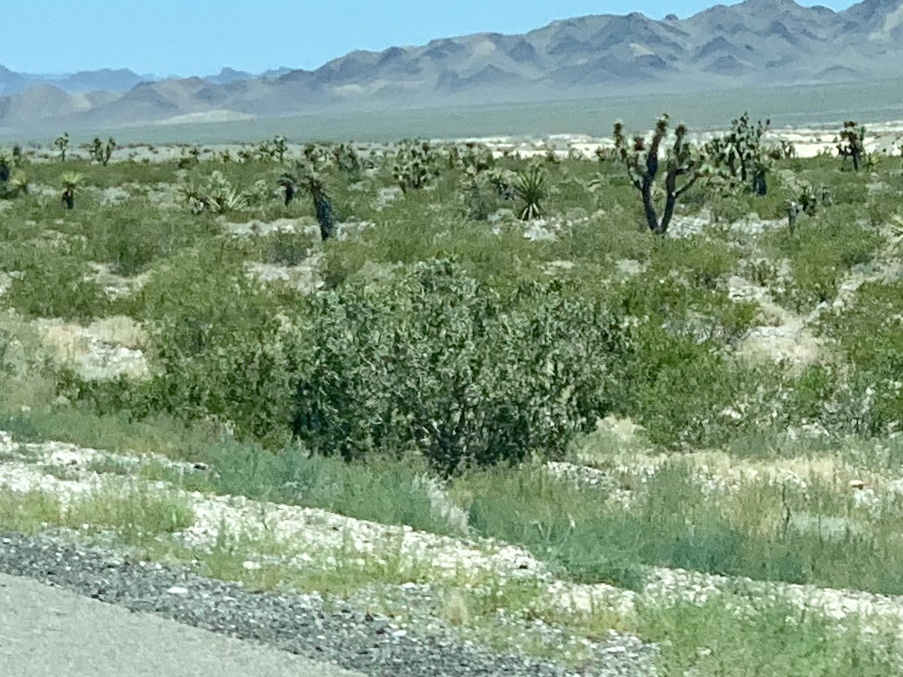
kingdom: Plantae
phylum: Tracheophyta
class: Magnoliopsida
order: Zygophyllales
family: Zygophyllaceae
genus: Larrea
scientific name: Larrea tridentata
